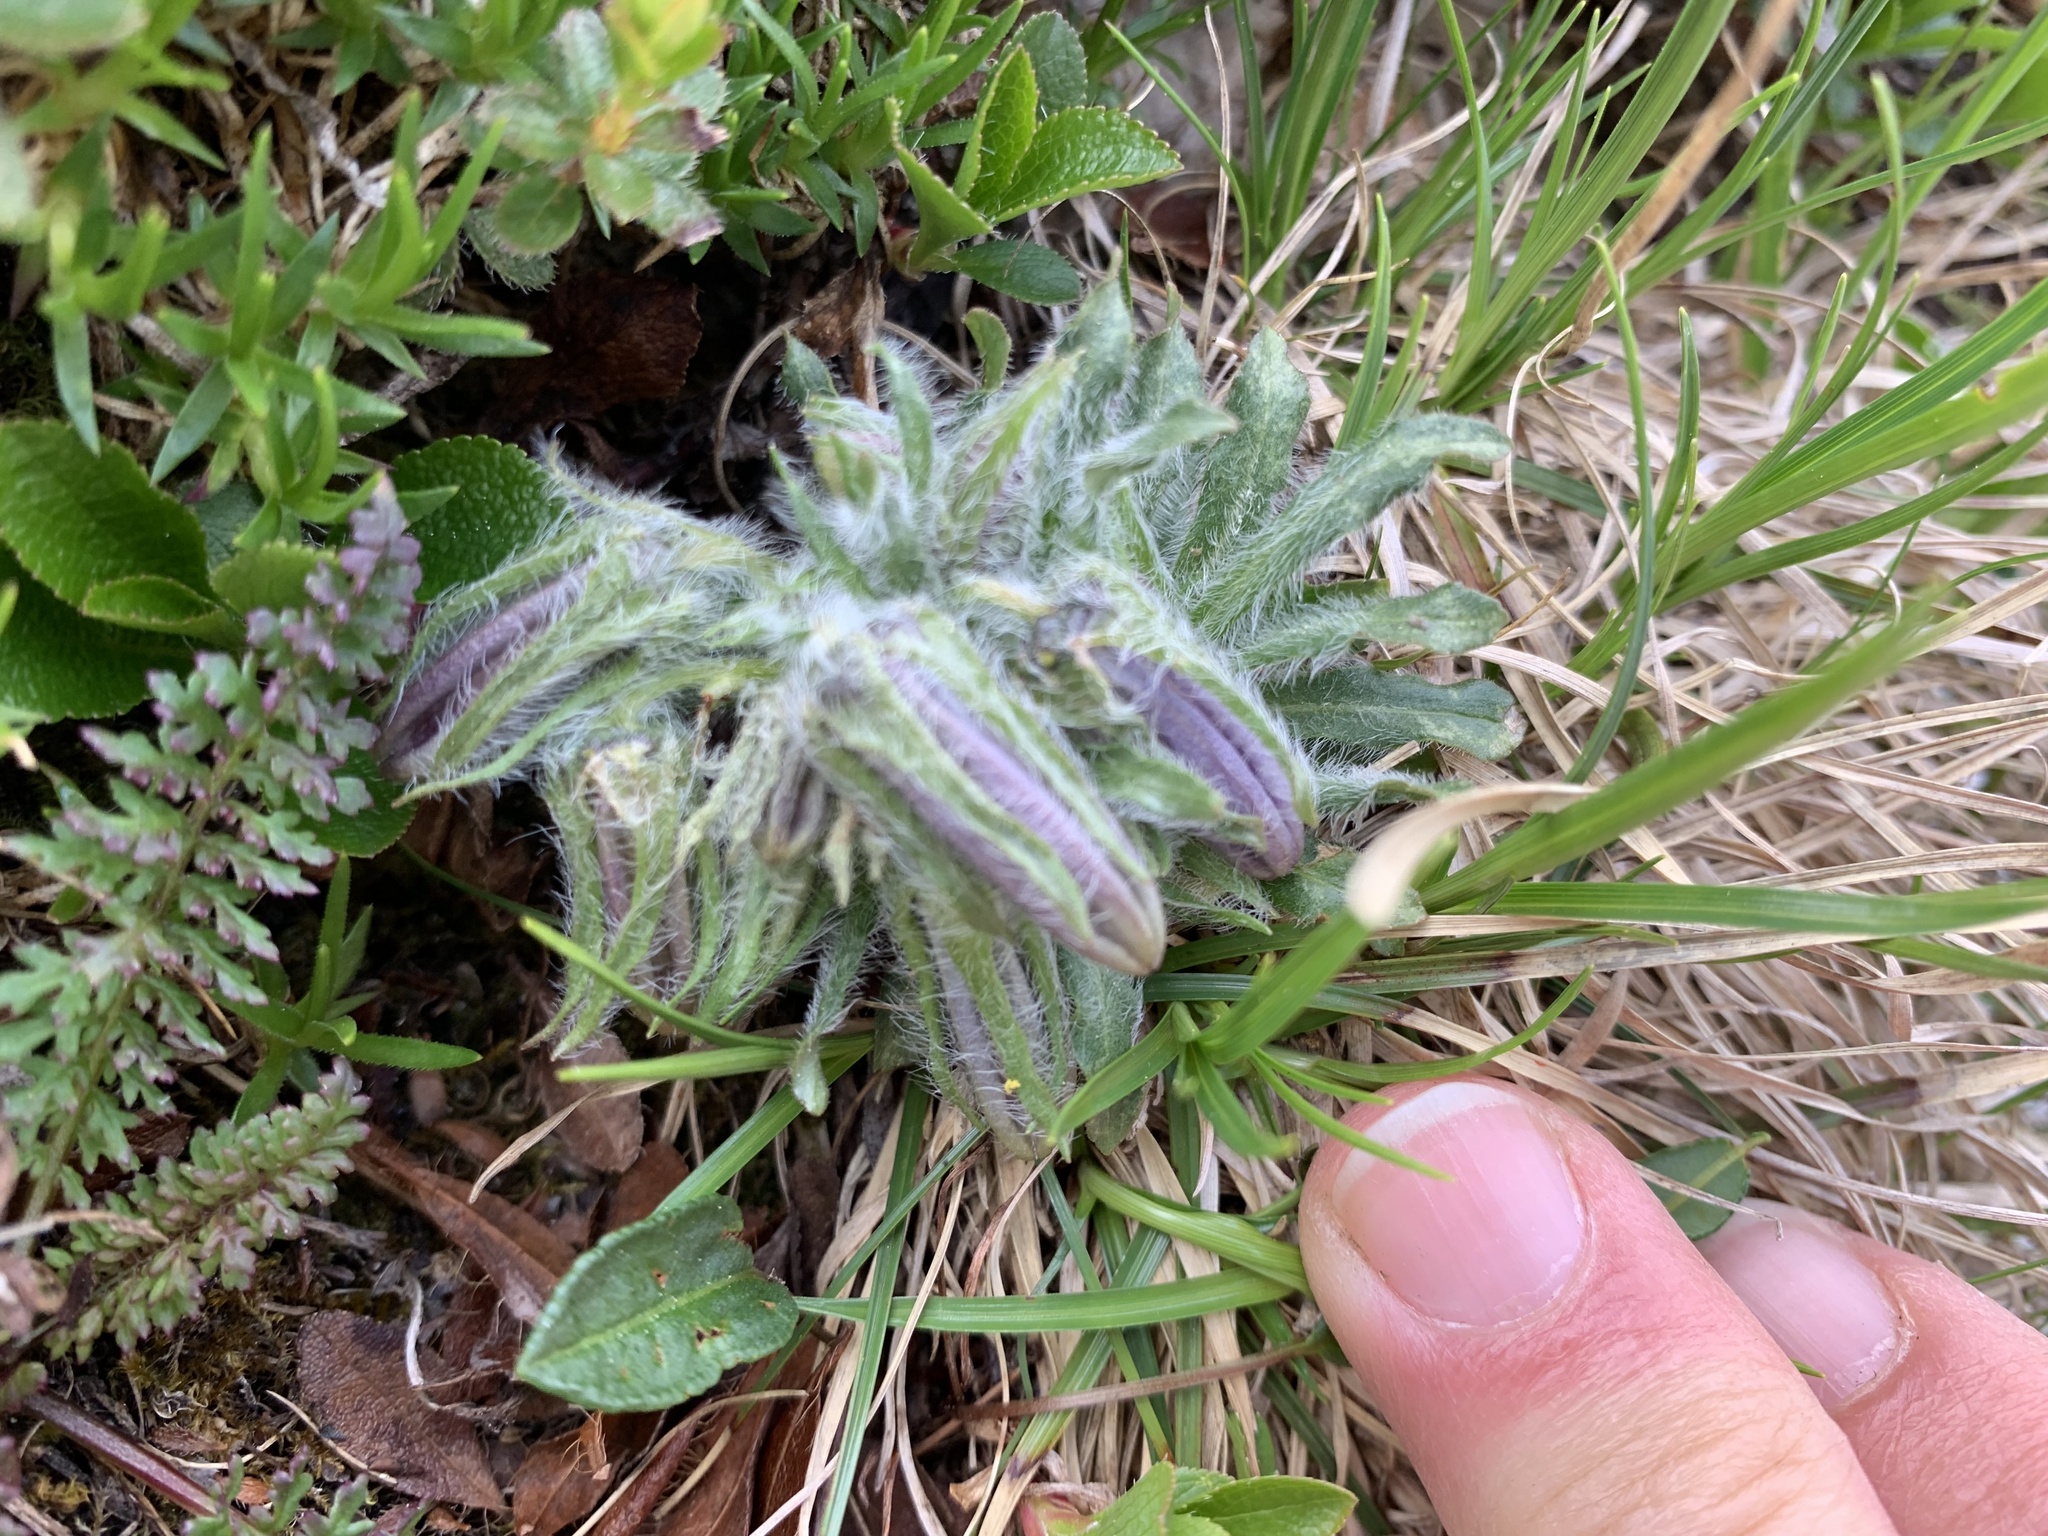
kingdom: Plantae
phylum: Tracheophyta
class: Magnoliopsida
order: Asterales
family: Campanulaceae
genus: Campanula
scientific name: Campanula alpina
